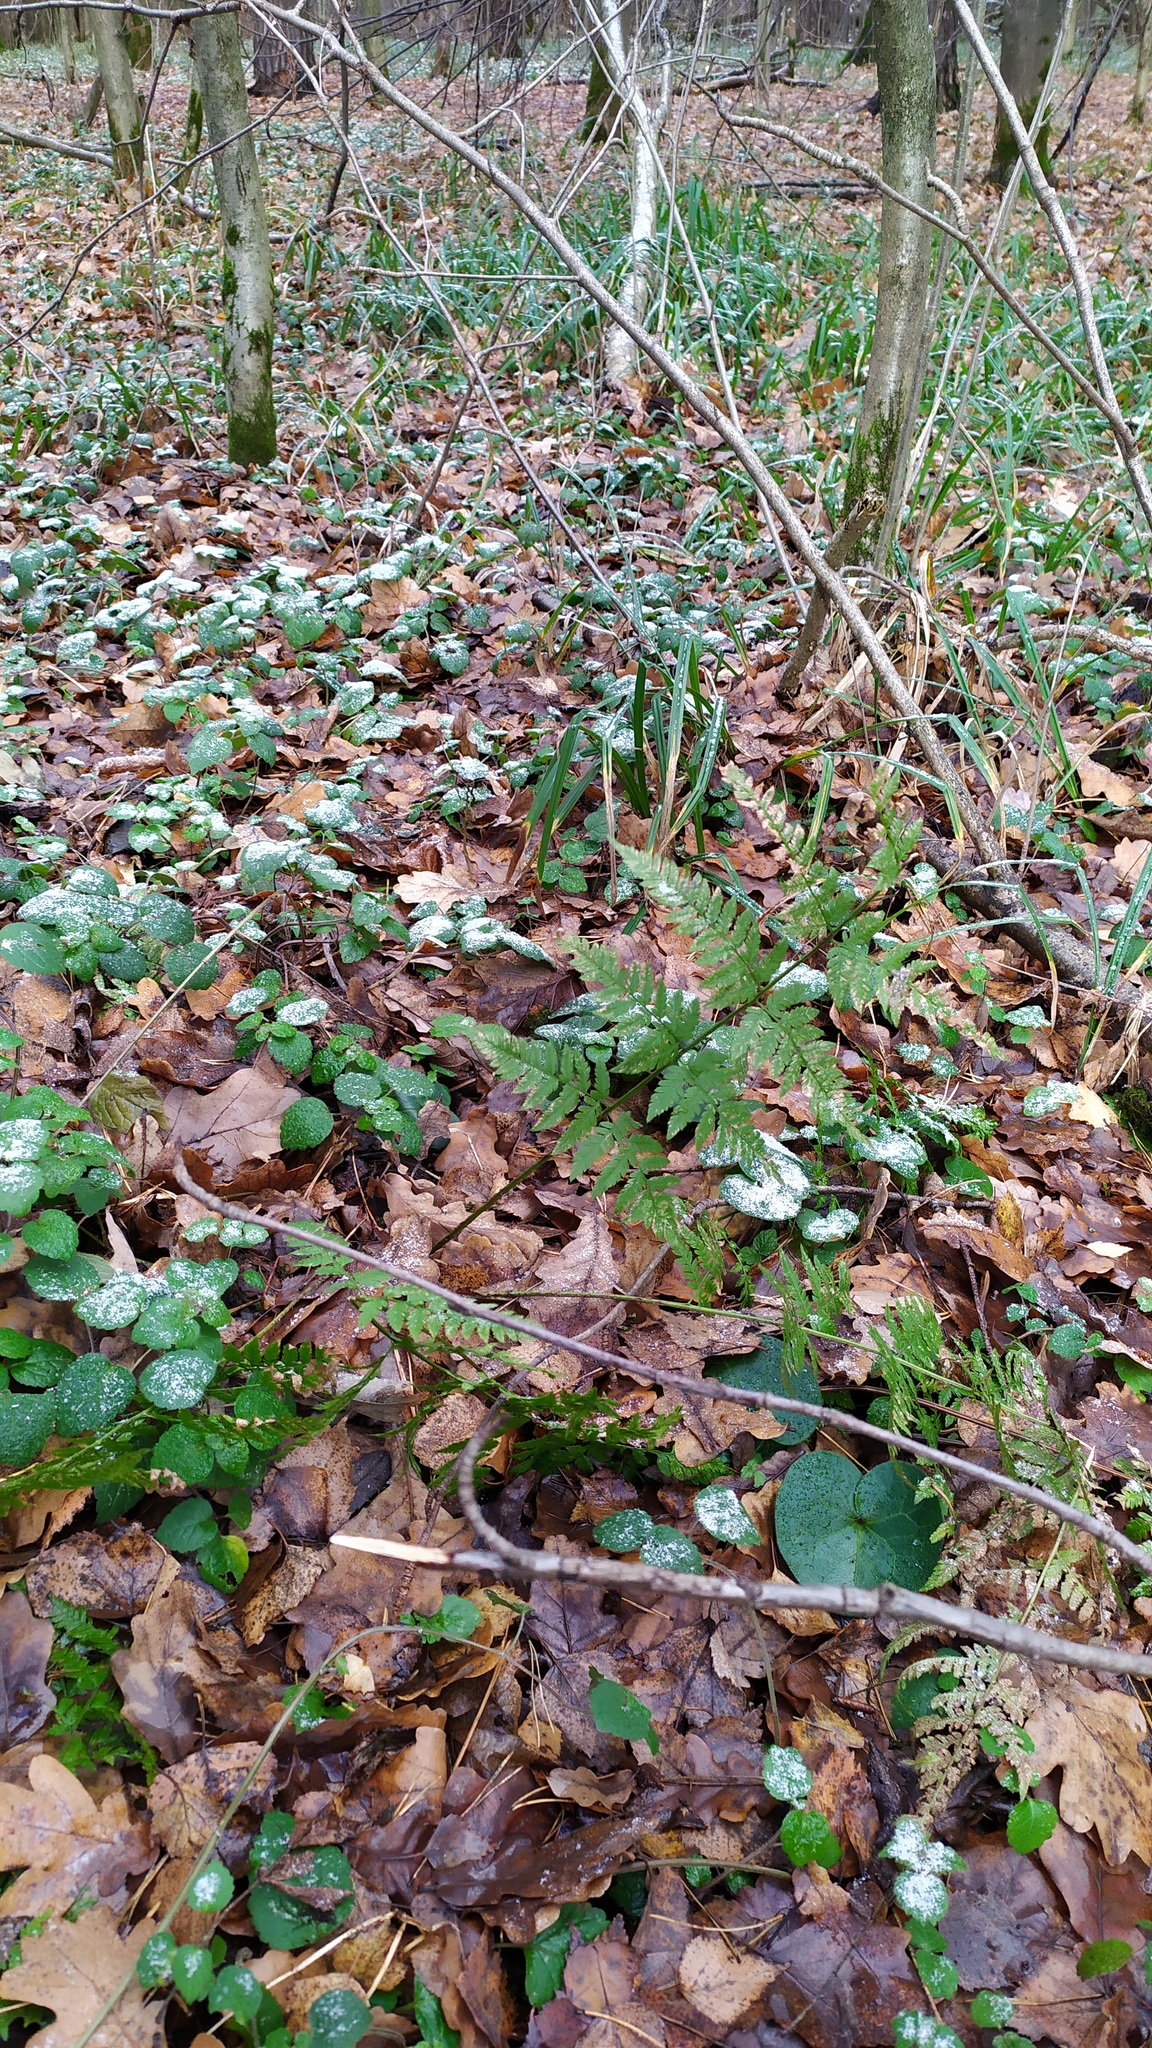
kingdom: Plantae
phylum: Tracheophyta
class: Polypodiopsida
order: Polypodiales
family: Dryopteridaceae
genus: Dryopteris
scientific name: Dryopteris carthusiana
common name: Narrow buckler-fern
